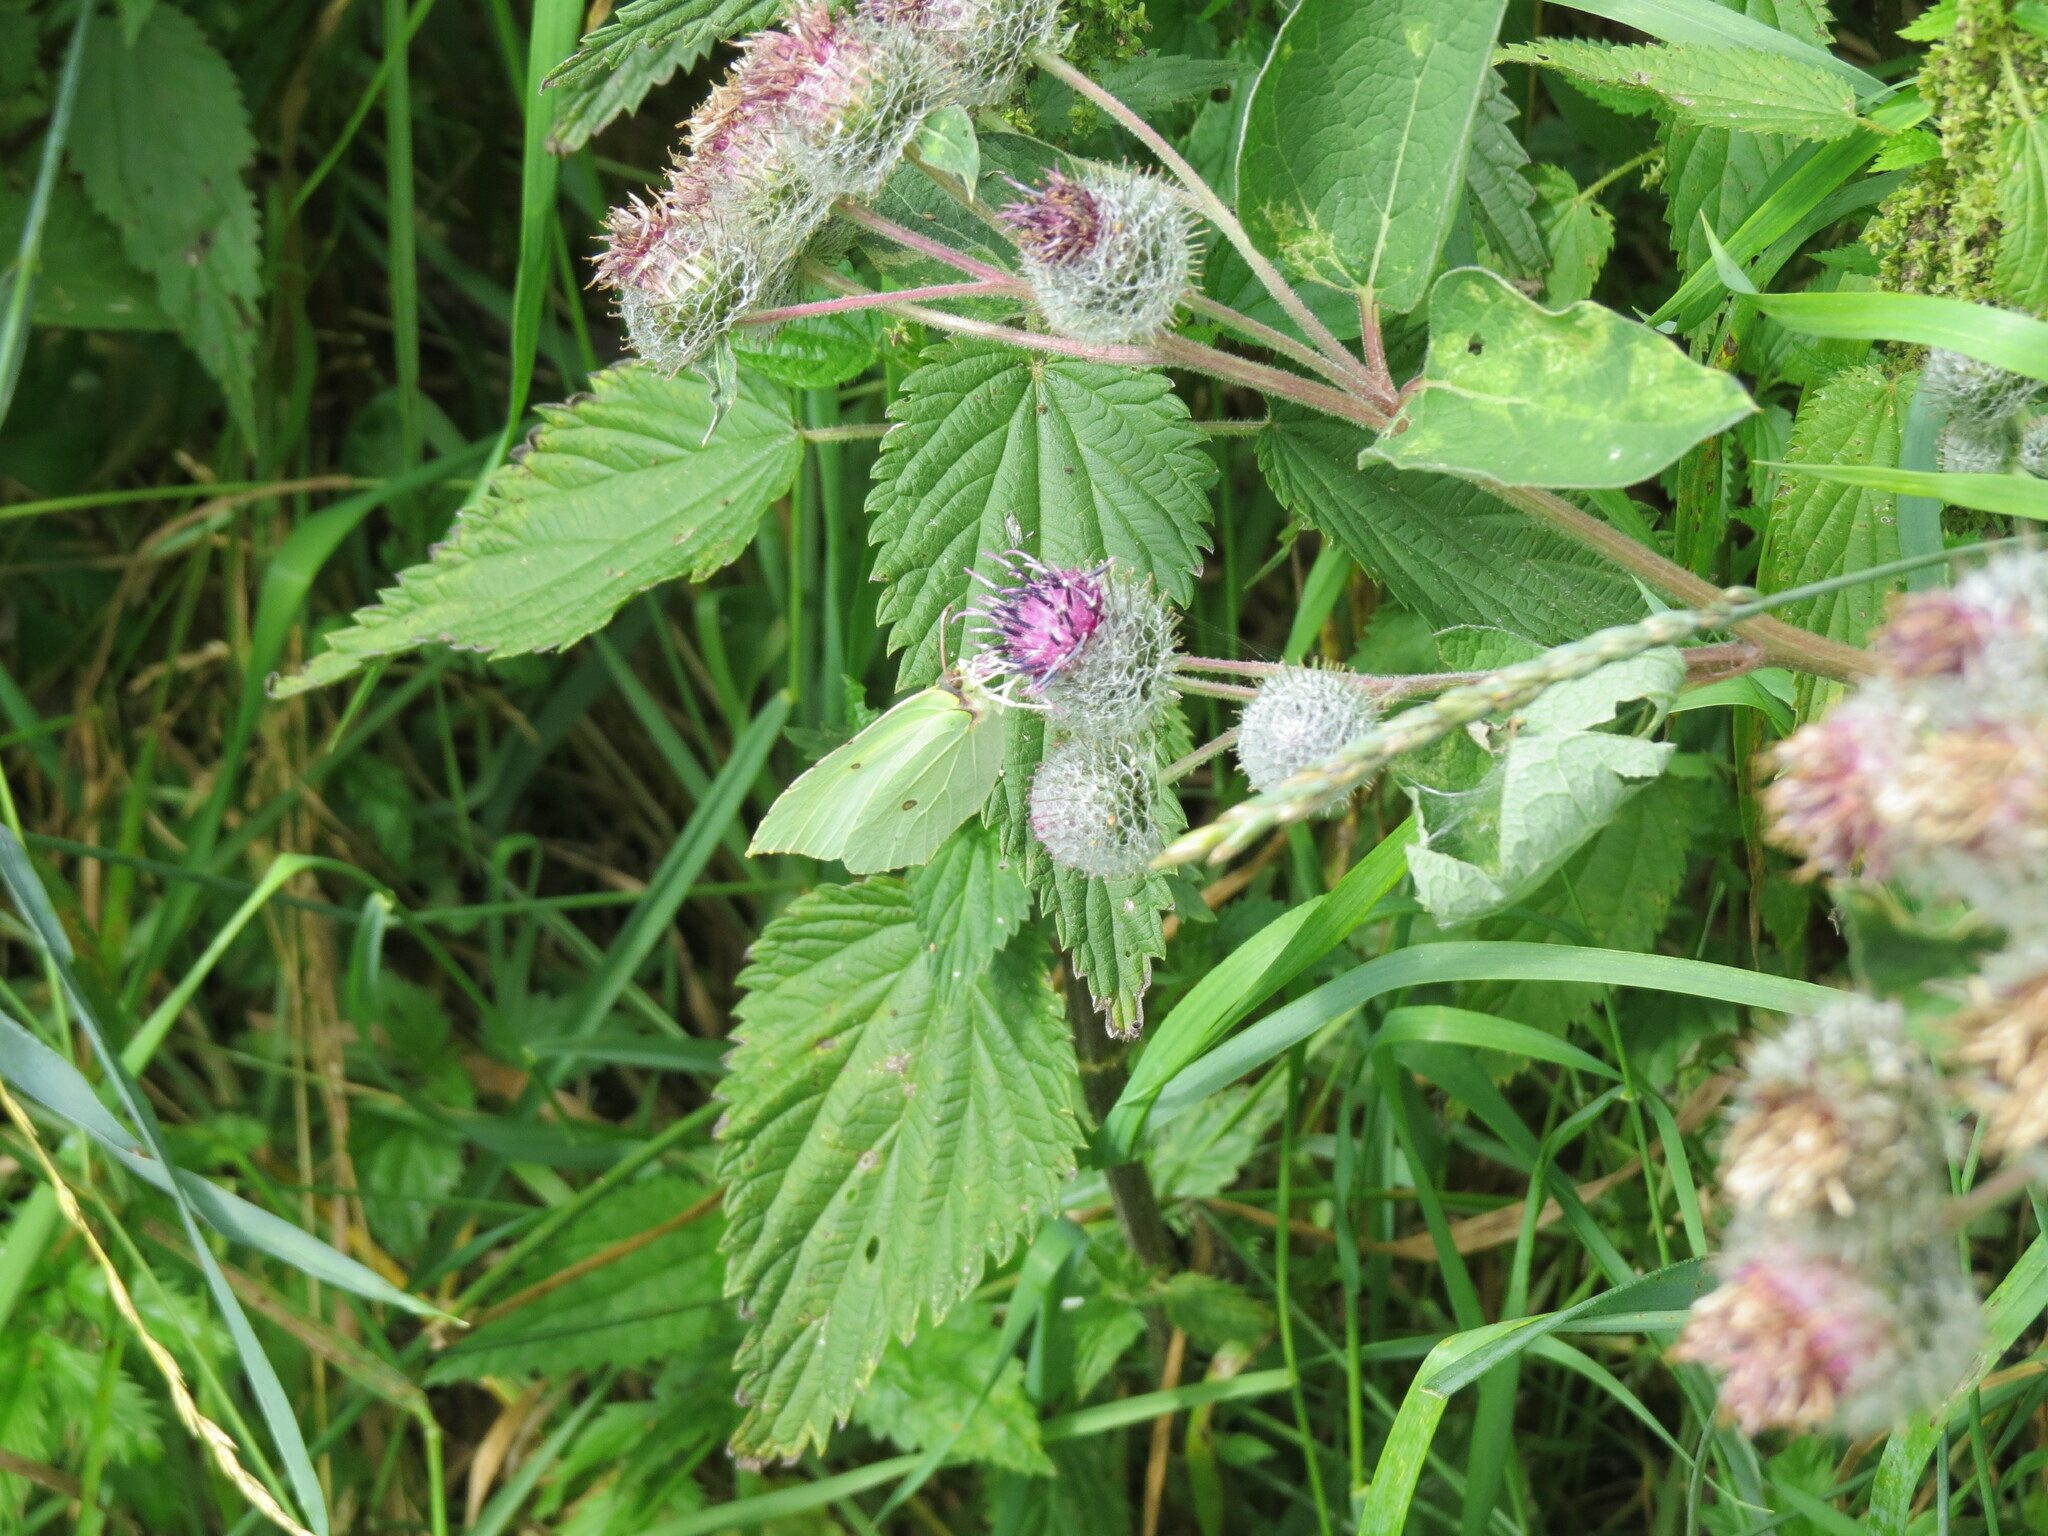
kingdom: Animalia
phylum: Arthropoda
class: Insecta
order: Lepidoptera
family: Pieridae
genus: Gonepteryx
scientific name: Gonepteryx rhamni
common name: Brimstone
